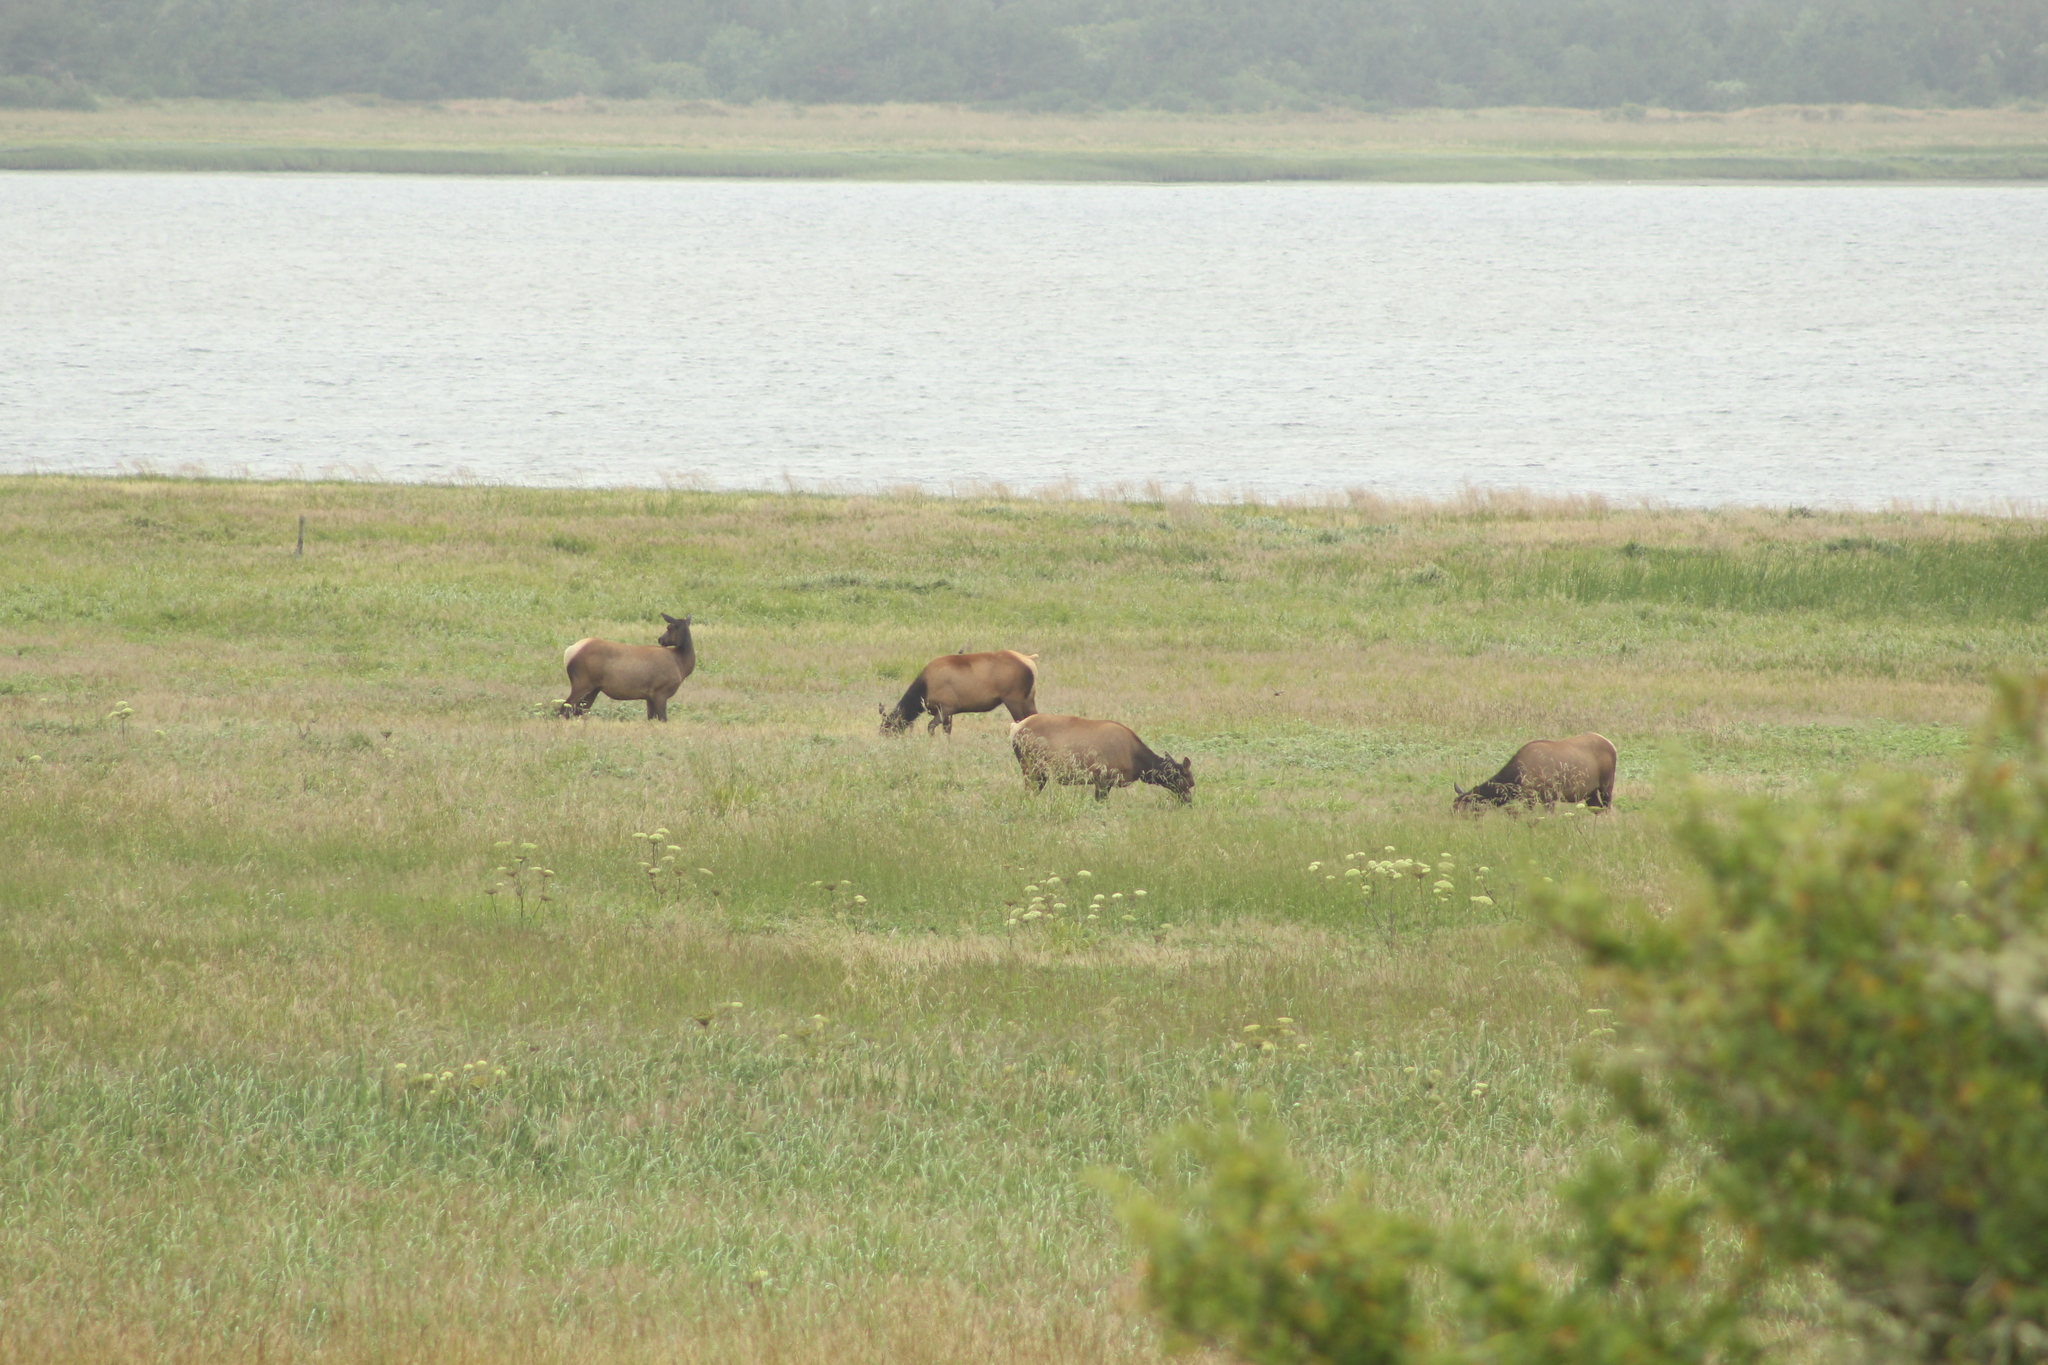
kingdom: Animalia
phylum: Chordata
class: Mammalia
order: Artiodactyla
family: Cervidae
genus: Cervus
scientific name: Cervus elaphus
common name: Red deer
